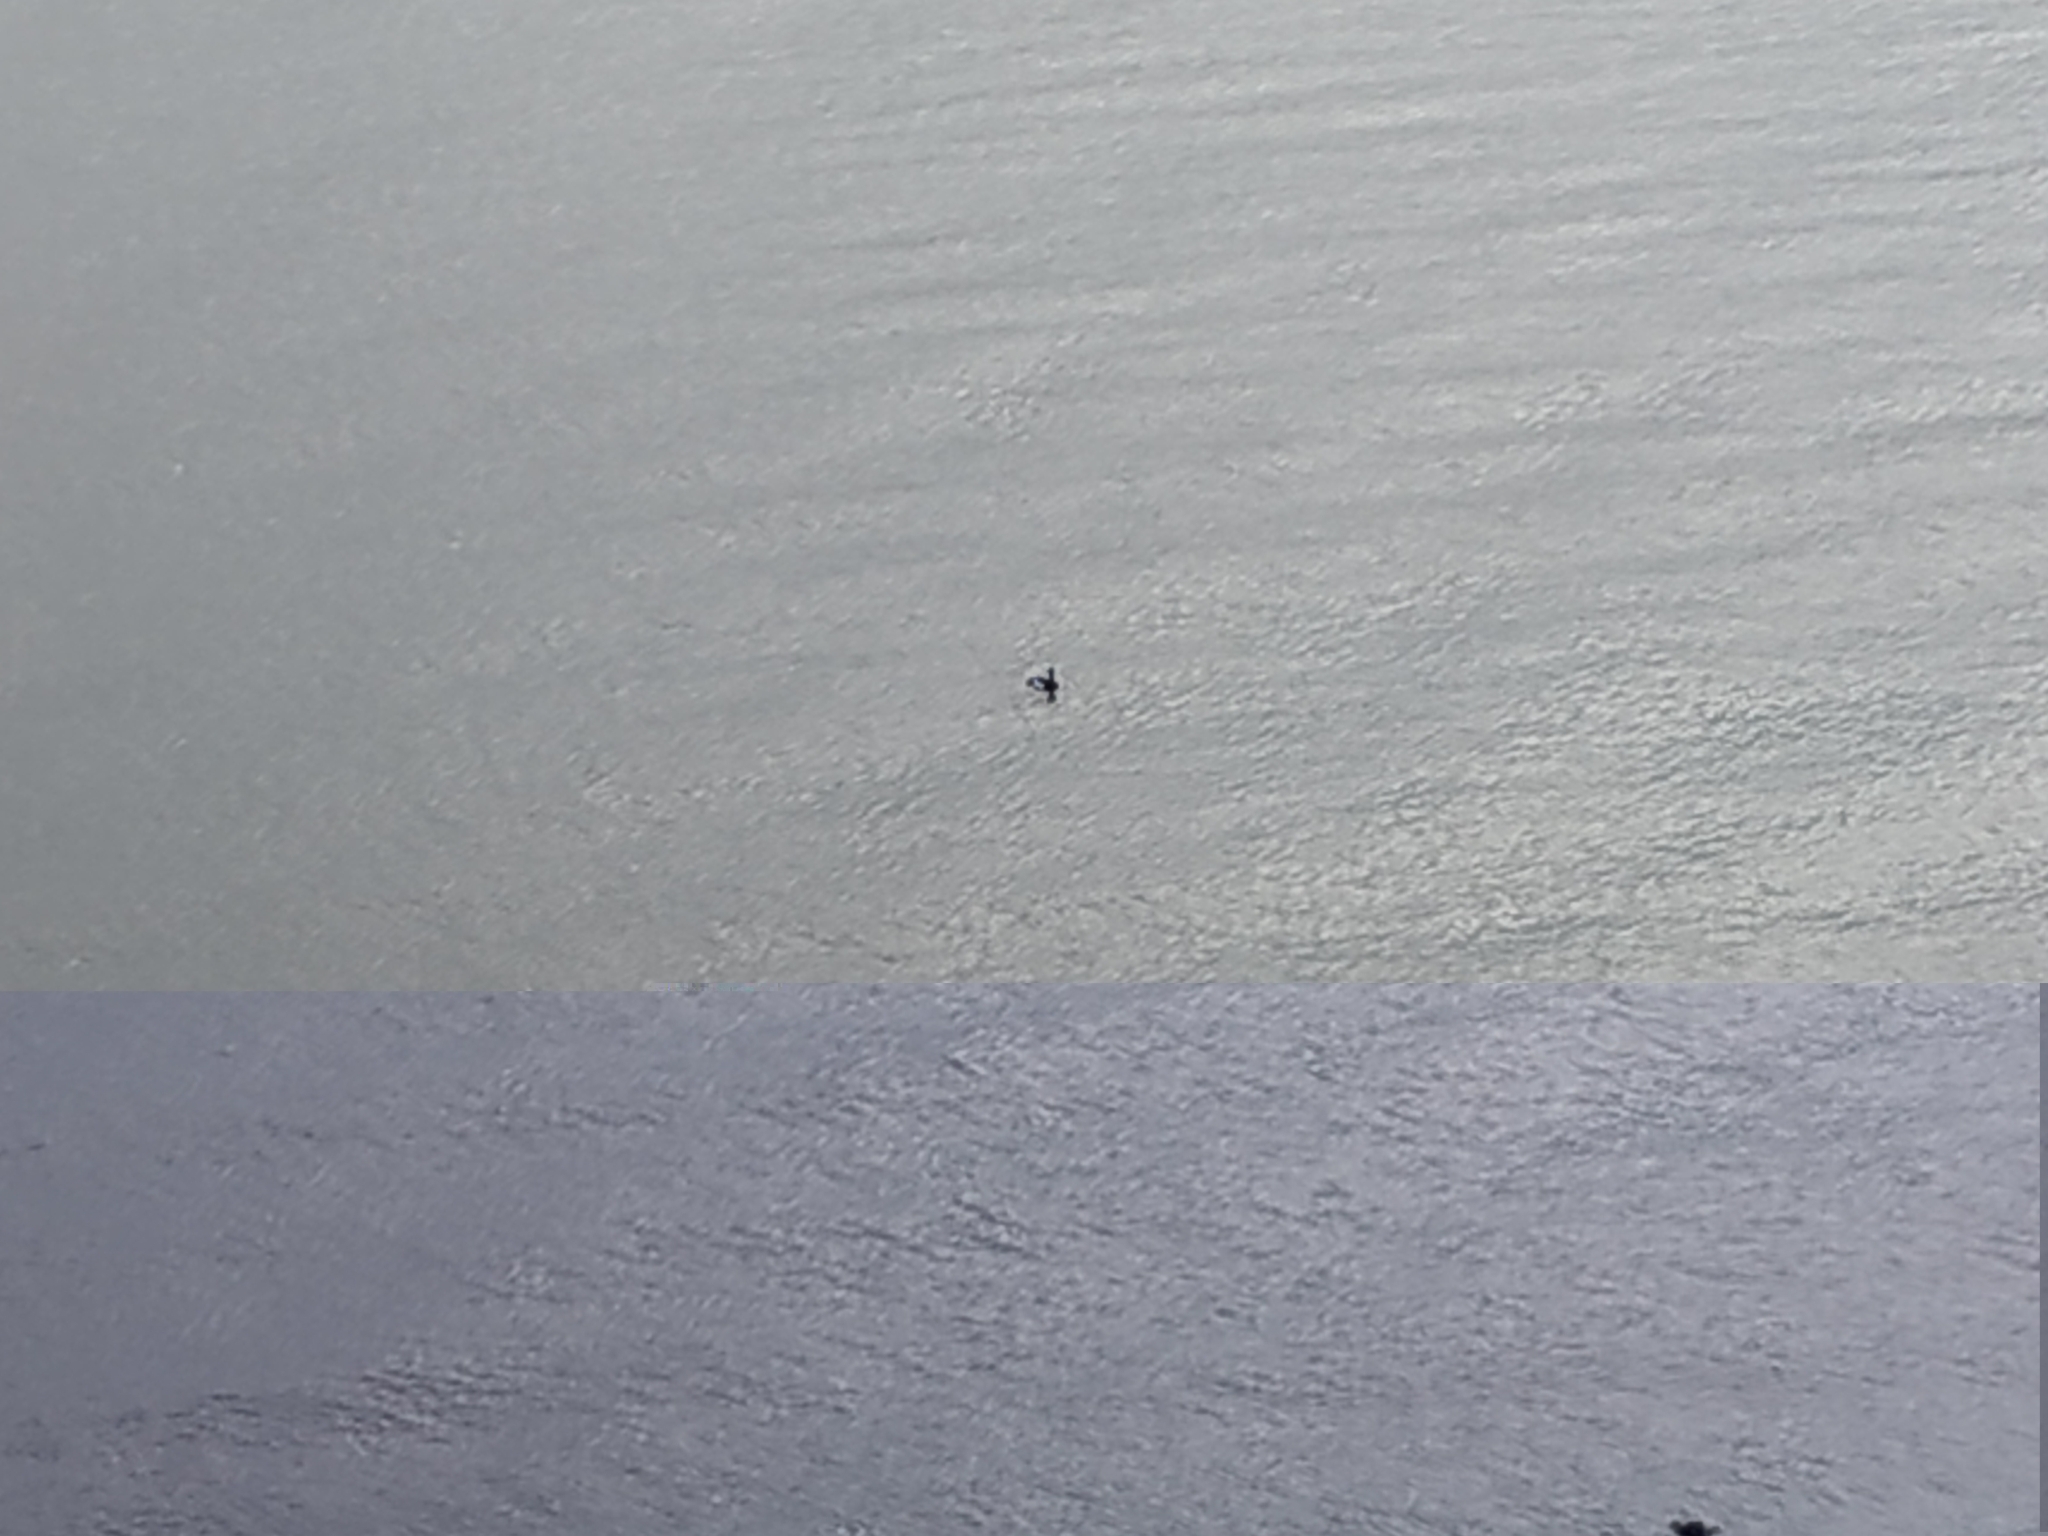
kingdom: Animalia
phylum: Chordata
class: Aves
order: Anseriformes
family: Anatidae
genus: Aythya
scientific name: Aythya fuligula
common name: Tufted duck
